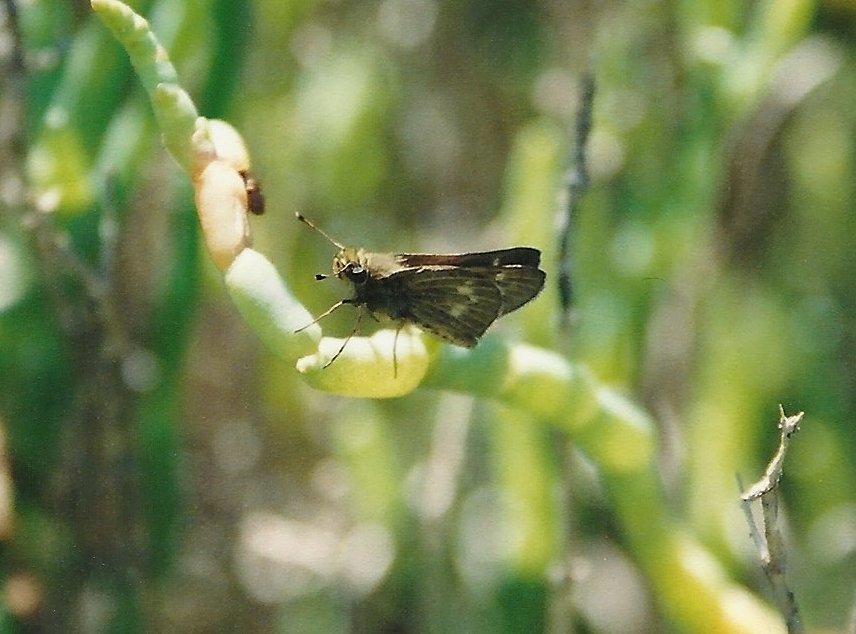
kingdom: Animalia
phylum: Arthropoda
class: Insecta
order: Lepidoptera
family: Hesperiidae
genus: Panoquina
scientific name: Panoquina errans
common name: Wandering skipper
